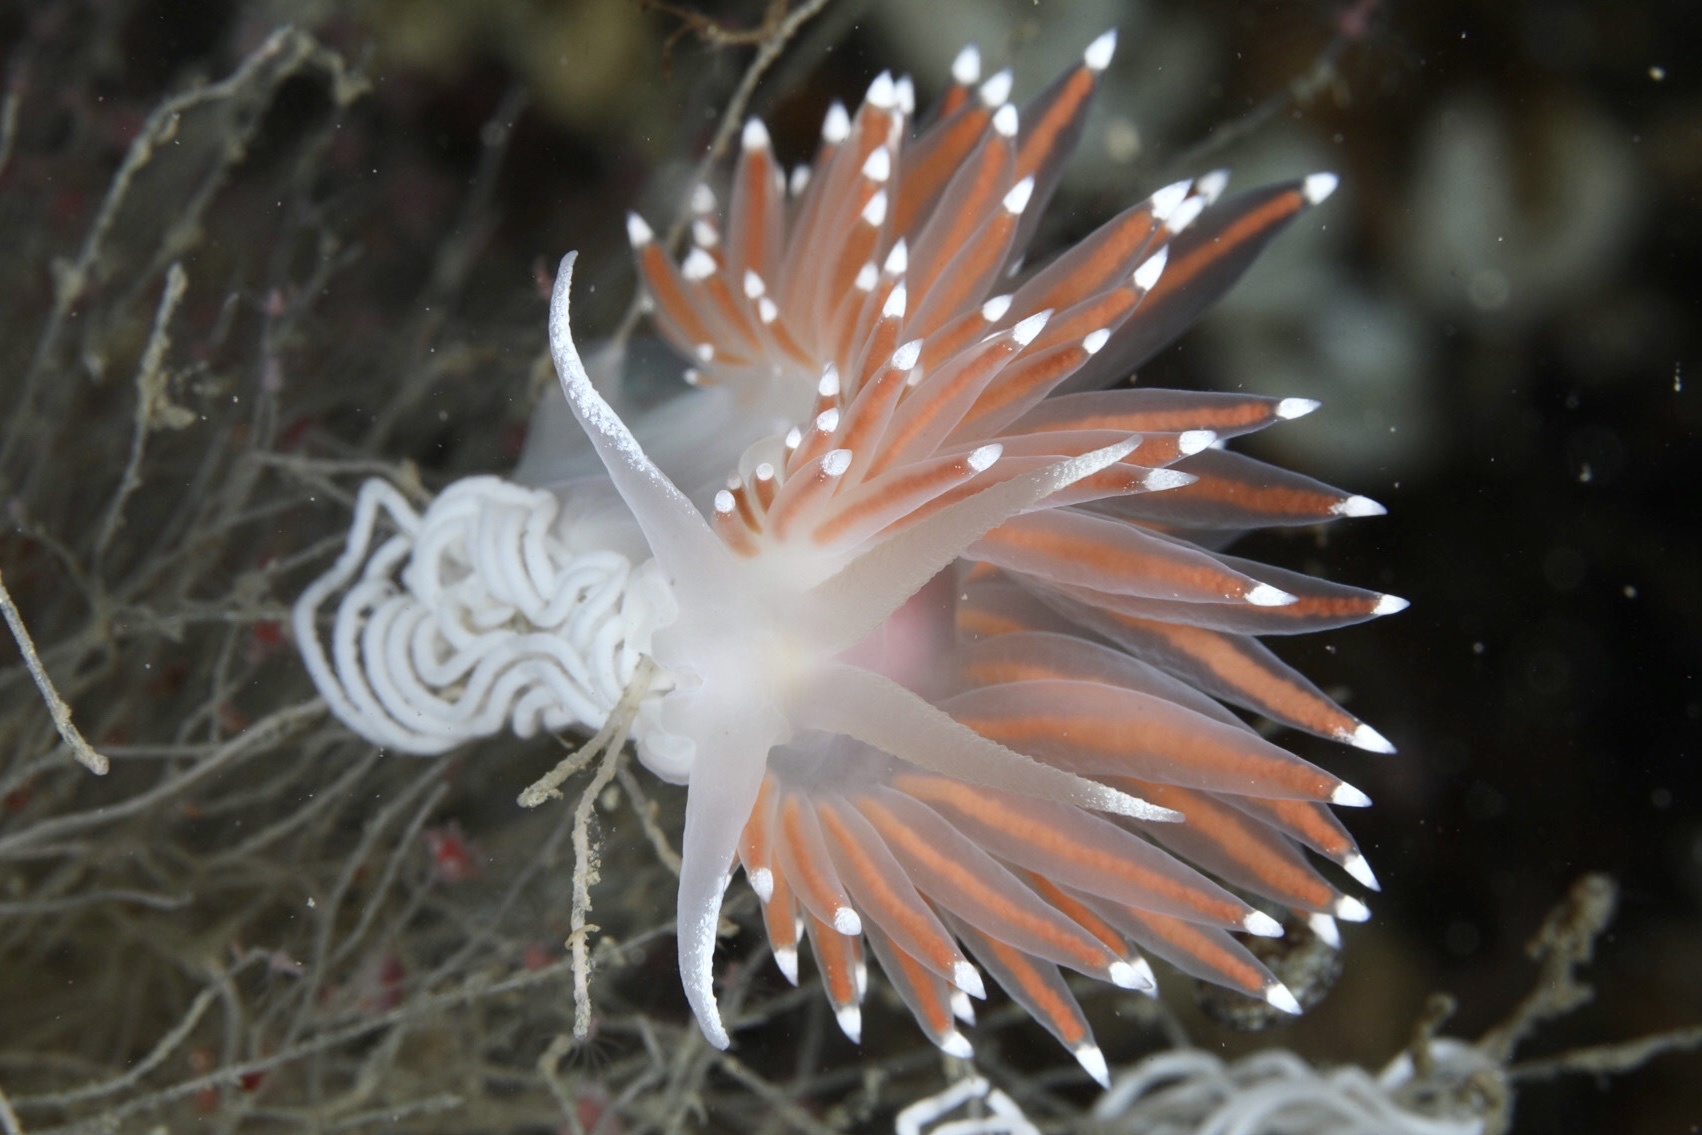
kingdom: Animalia
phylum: Mollusca
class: Gastropoda
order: Nudibranchia
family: Coryphellidae
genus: Coryphella
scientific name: Coryphella nobilis
